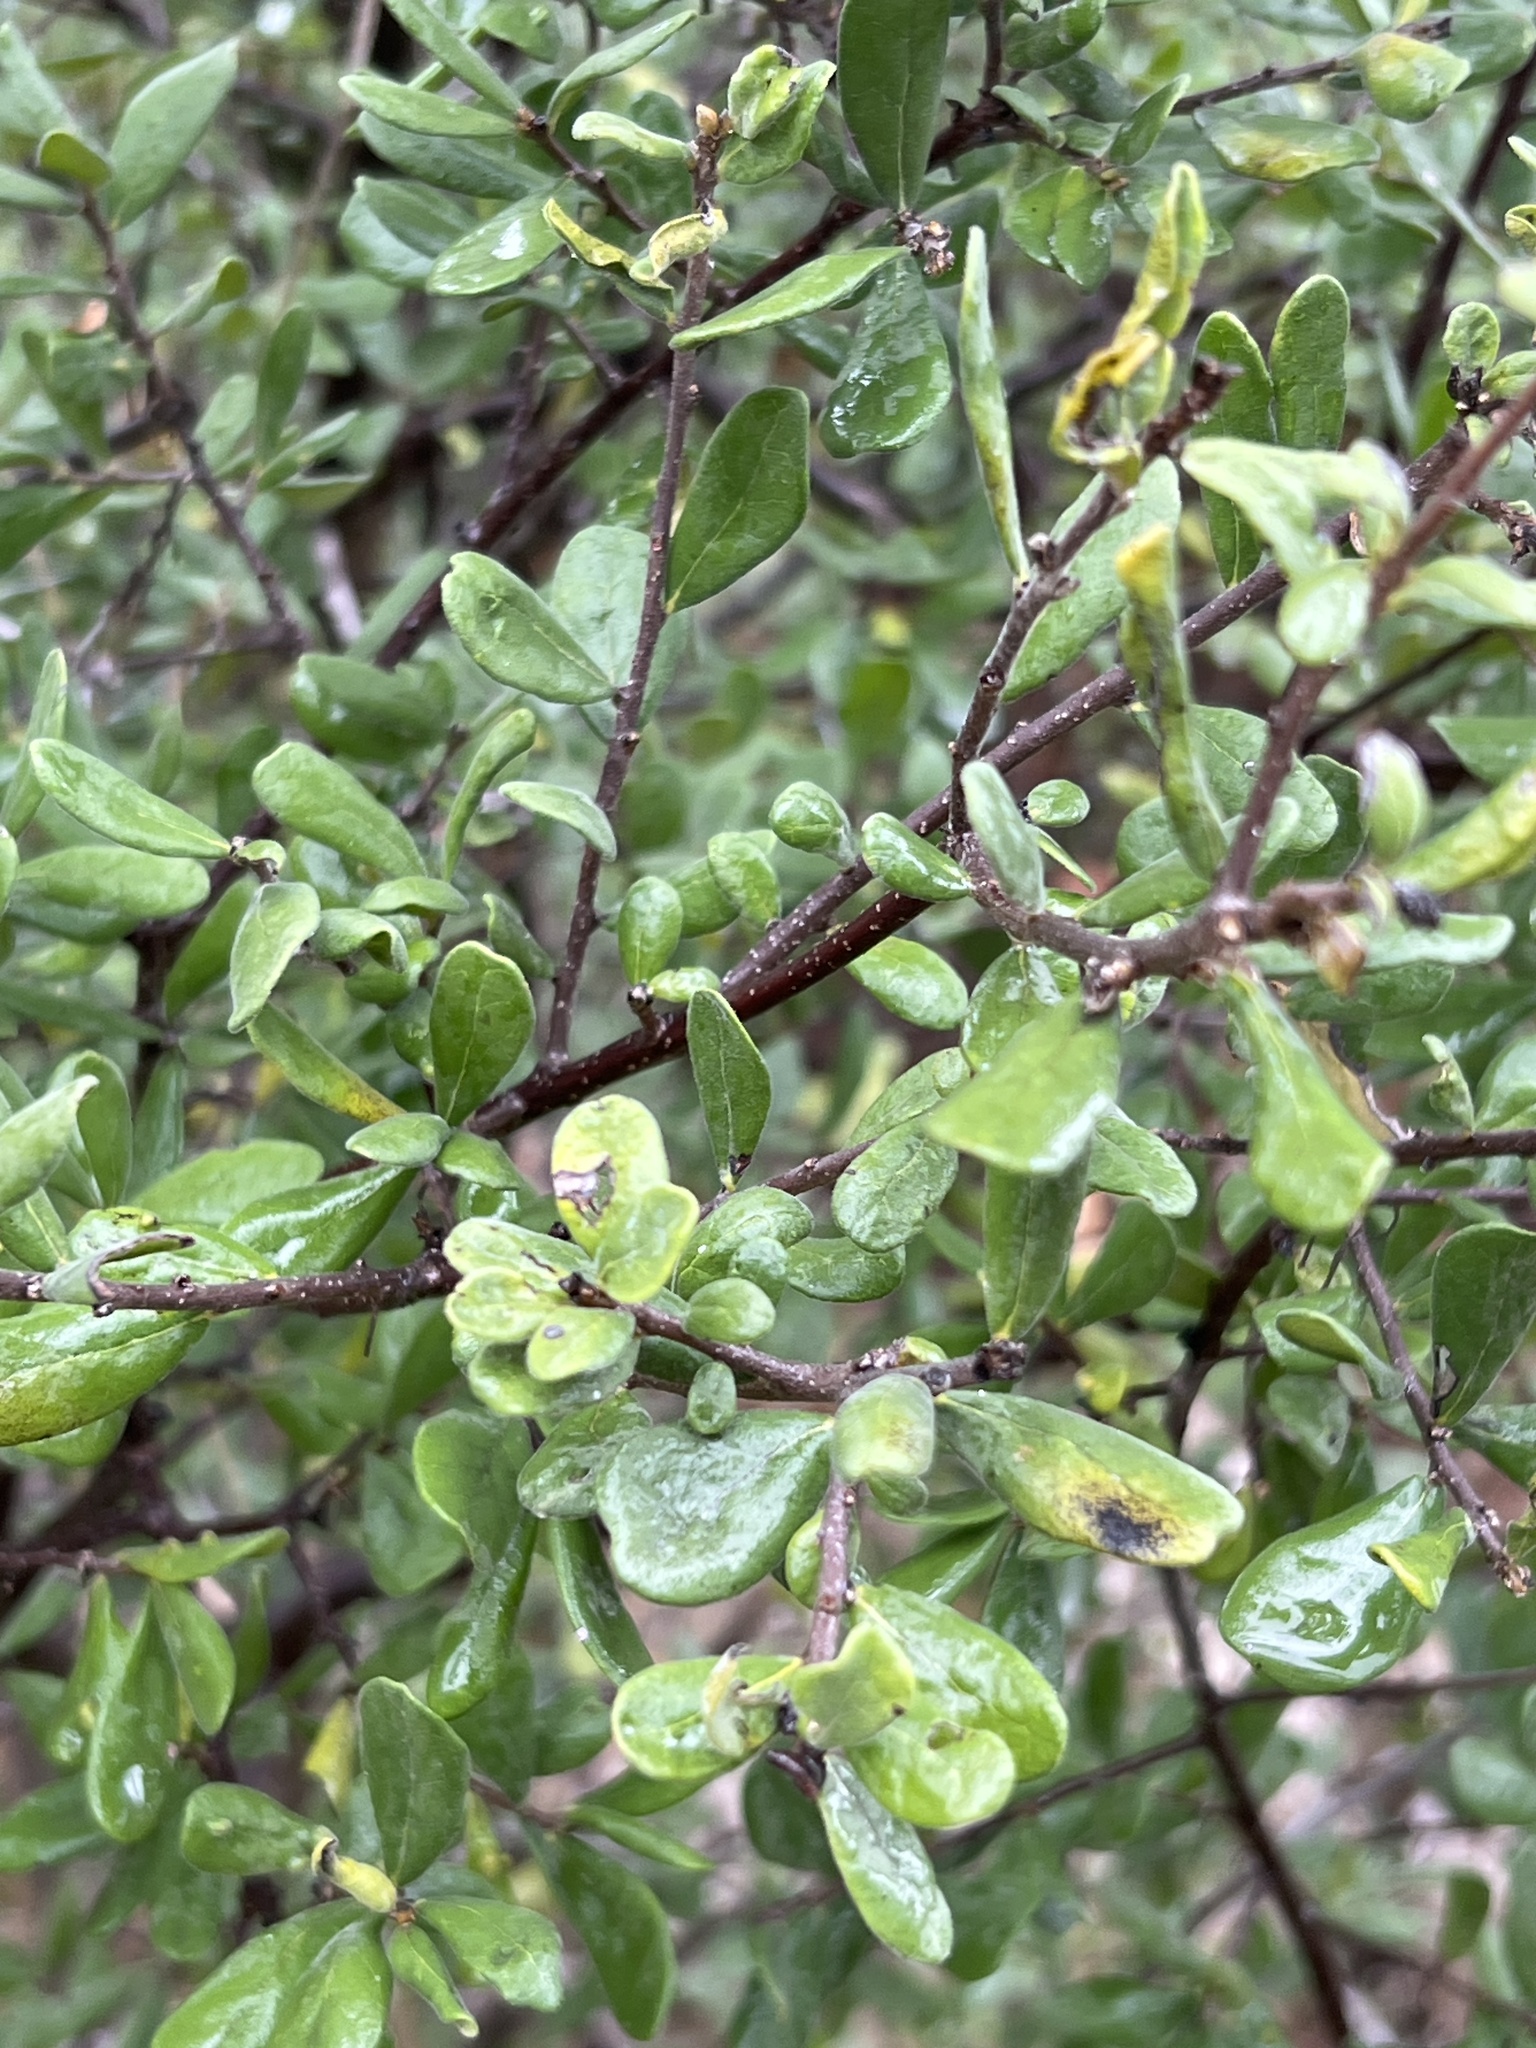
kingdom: Plantae
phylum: Tracheophyta
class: Magnoliopsida
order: Ericales
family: Ebenaceae
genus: Diospyros
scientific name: Diospyros texana
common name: Texas persimmon
